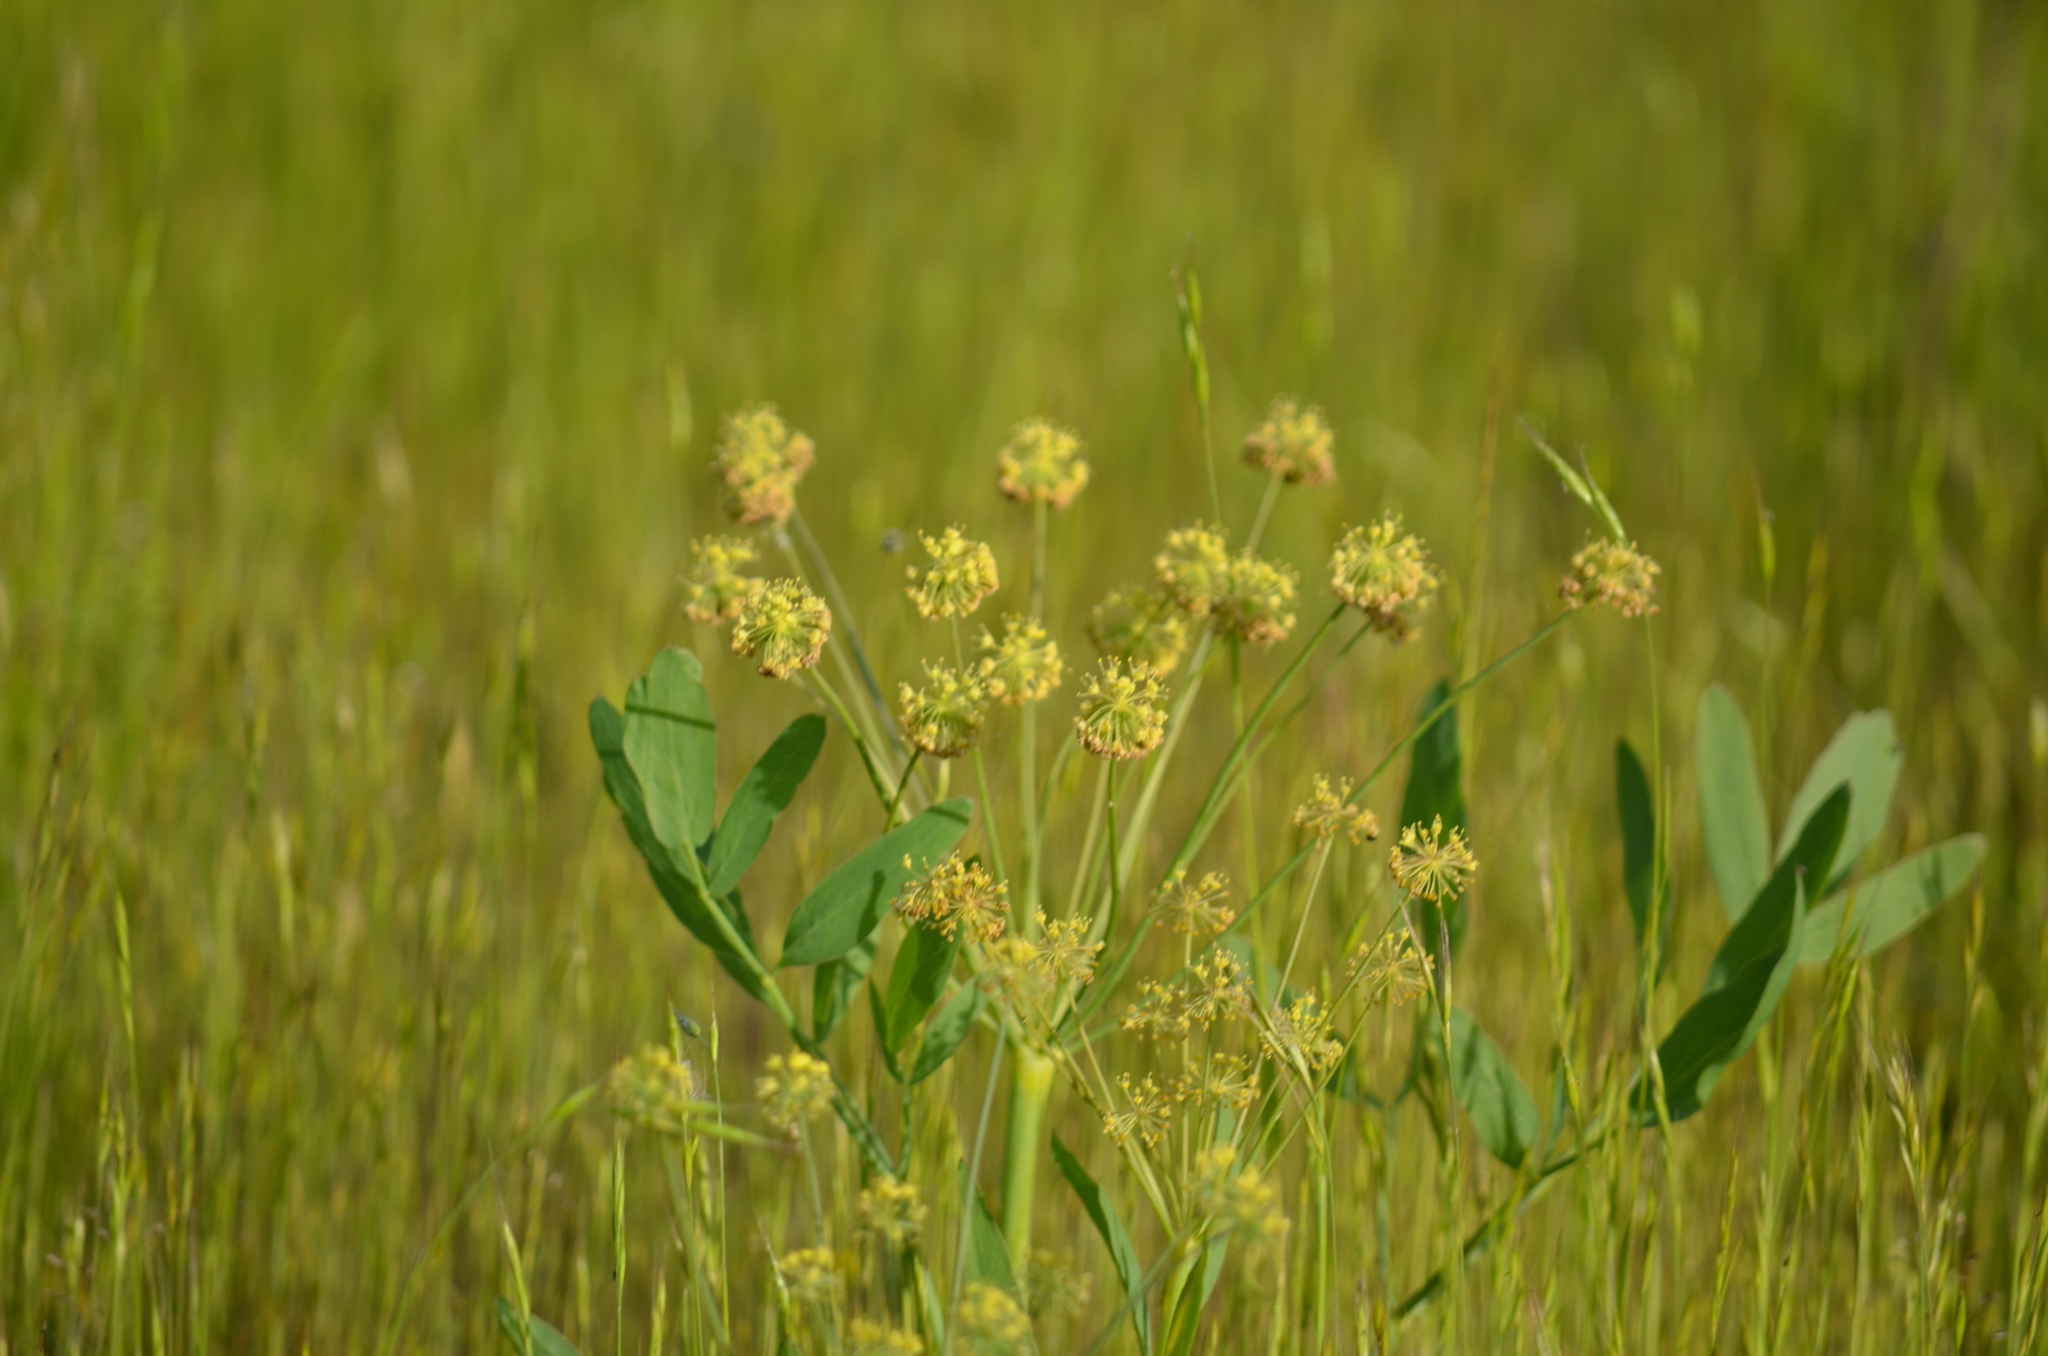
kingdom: Plantae
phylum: Tracheophyta
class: Magnoliopsida
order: Apiales
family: Apiaceae
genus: Lomatium
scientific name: Lomatium nudicaule
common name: Pestle lomatium
